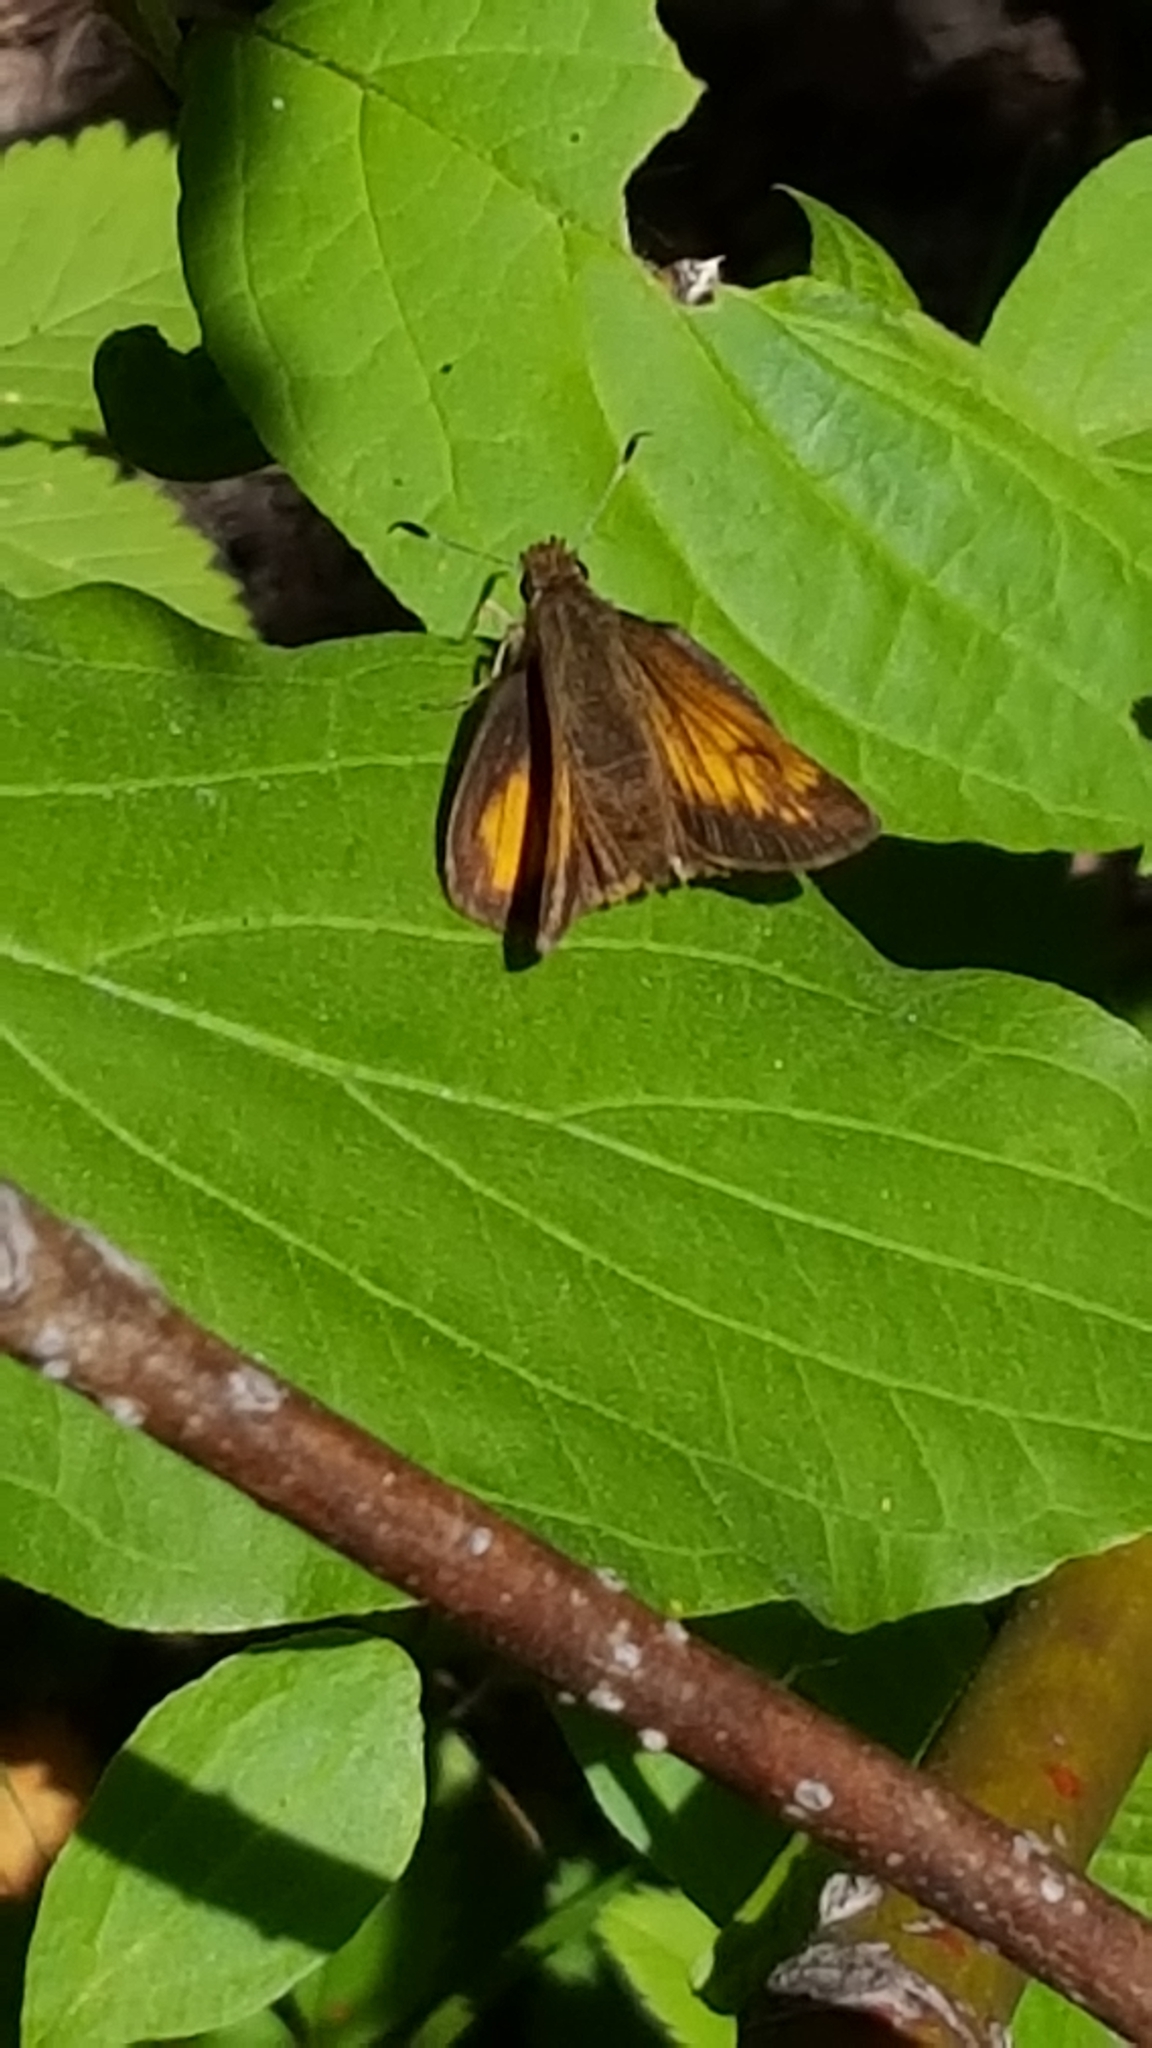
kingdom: Animalia
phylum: Arthropoda
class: Insecta
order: Lepidoptera
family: Hesperiidae
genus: Lon
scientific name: Lon hobomok
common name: Hobomok skipper
